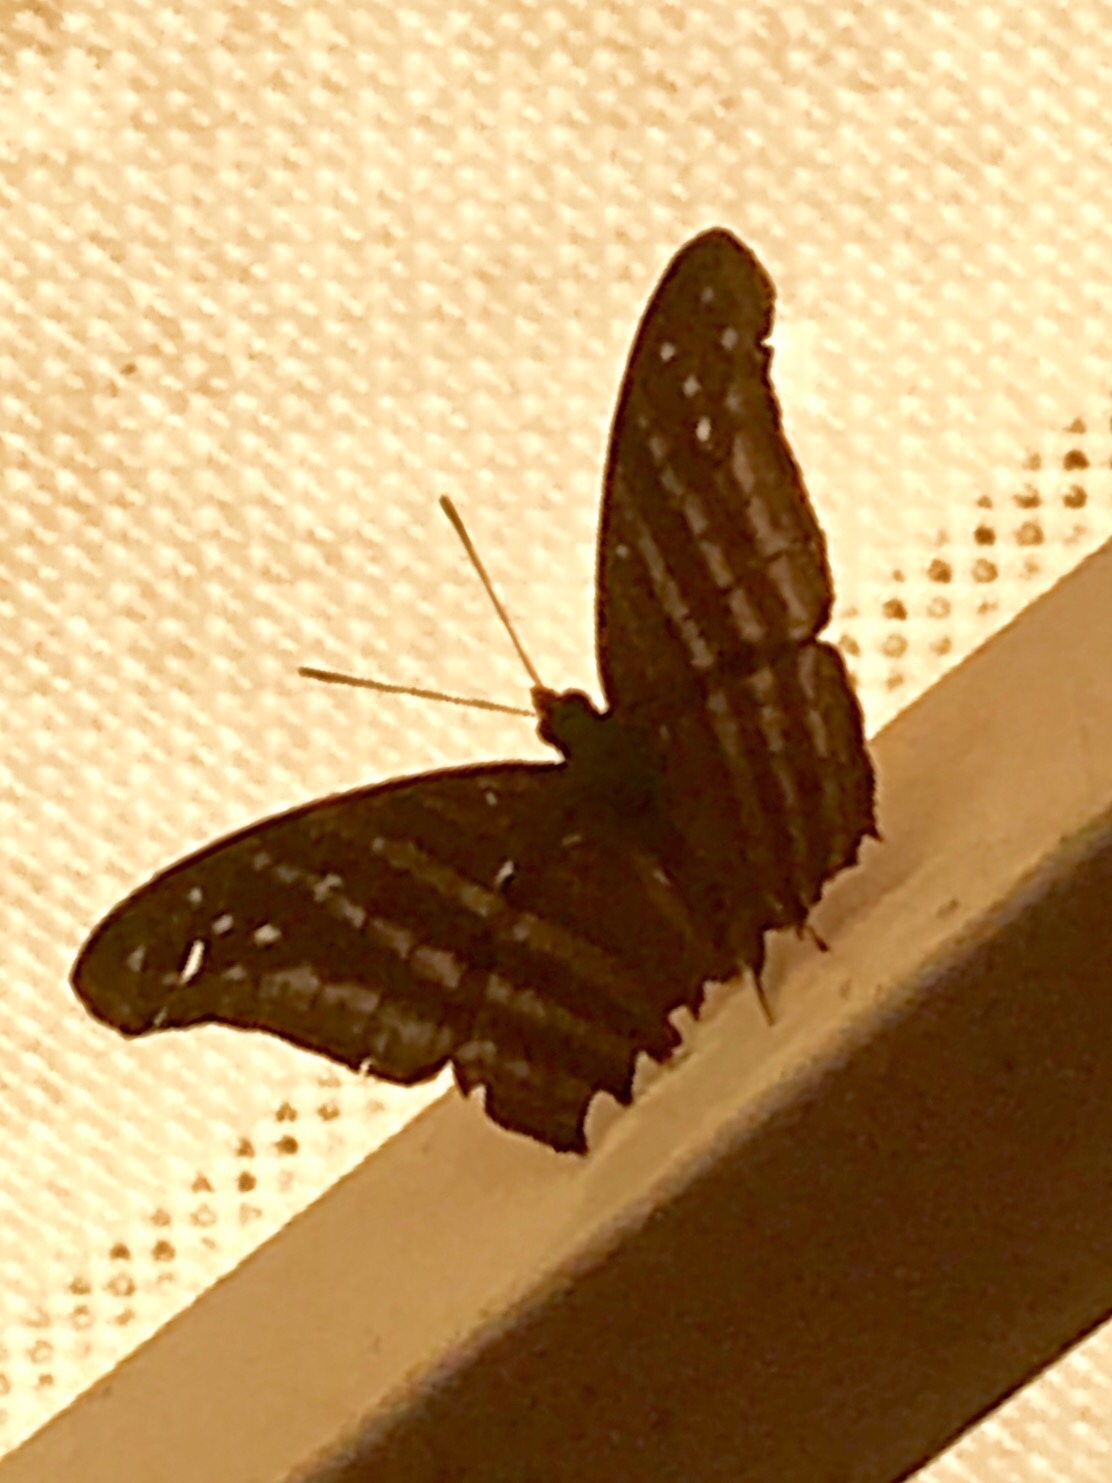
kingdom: Animalia
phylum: Arthropoda
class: Insecta
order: Lepidoptera
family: Nymphalidae
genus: Marpesia
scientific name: Marpesia chiron
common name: Many-banded daggerwing
